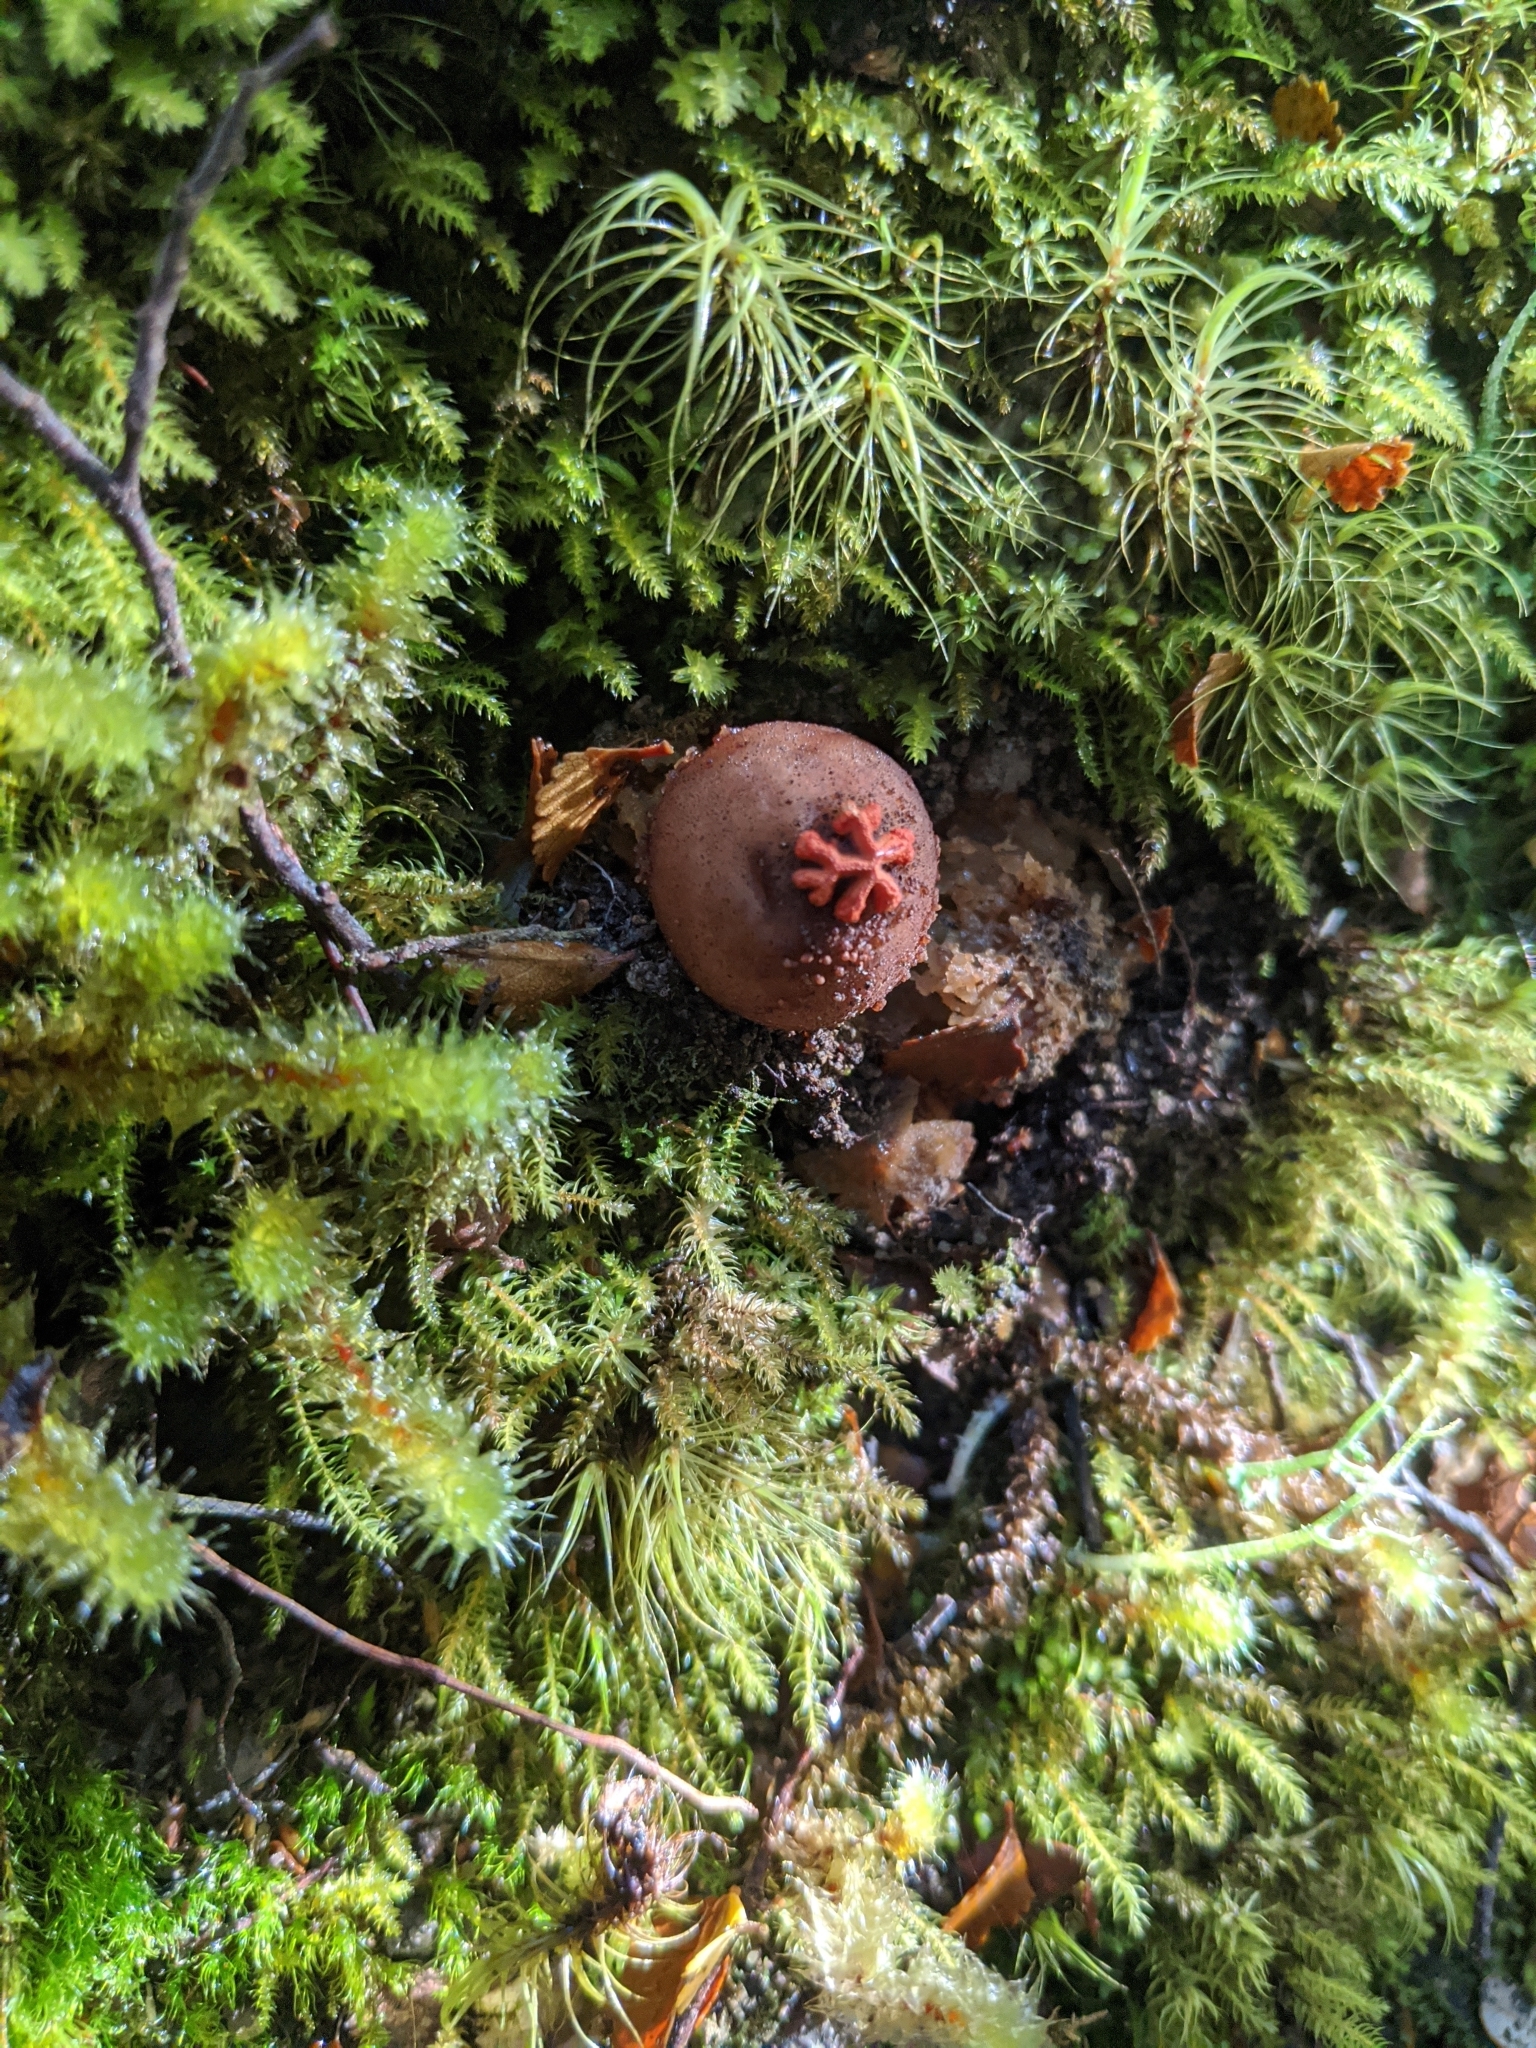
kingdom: Fungi
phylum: Basidiomycota
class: Agaricomycetes
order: Boletales
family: Calostomataceae
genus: Calostoma
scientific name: Calostoma rodwayi
